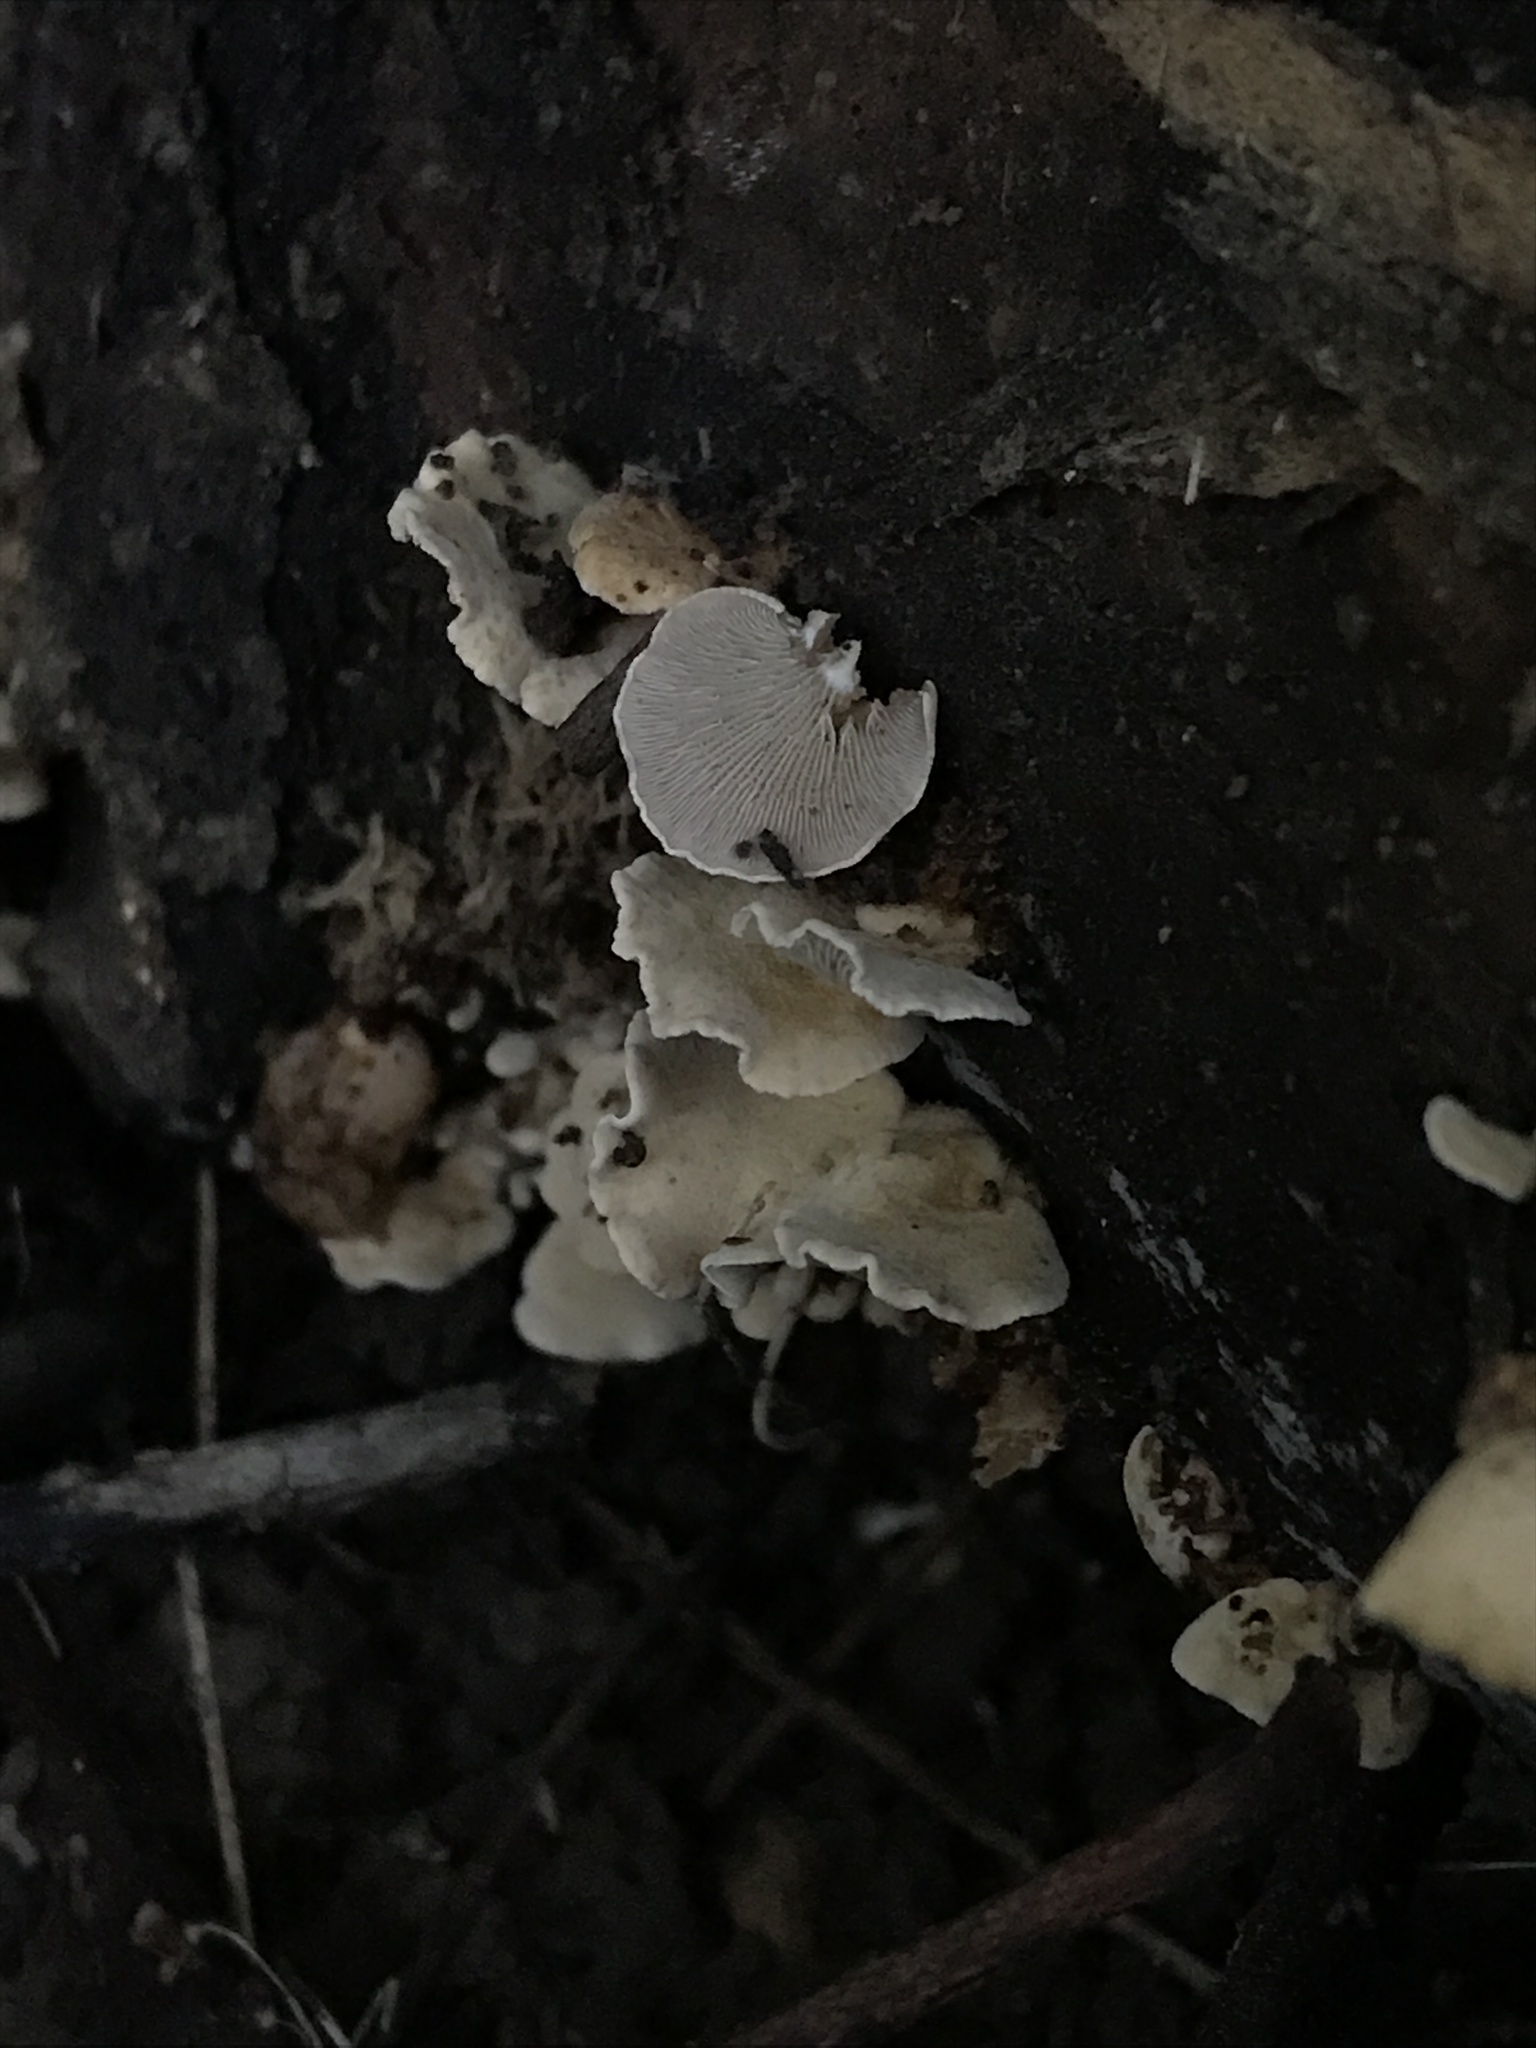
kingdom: Fungi
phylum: Basidiomycota
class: Agaricomycetes
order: Agaricales
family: Mycenaceae
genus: Panellus
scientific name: Panellus stipticus
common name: Bitter oysterling
